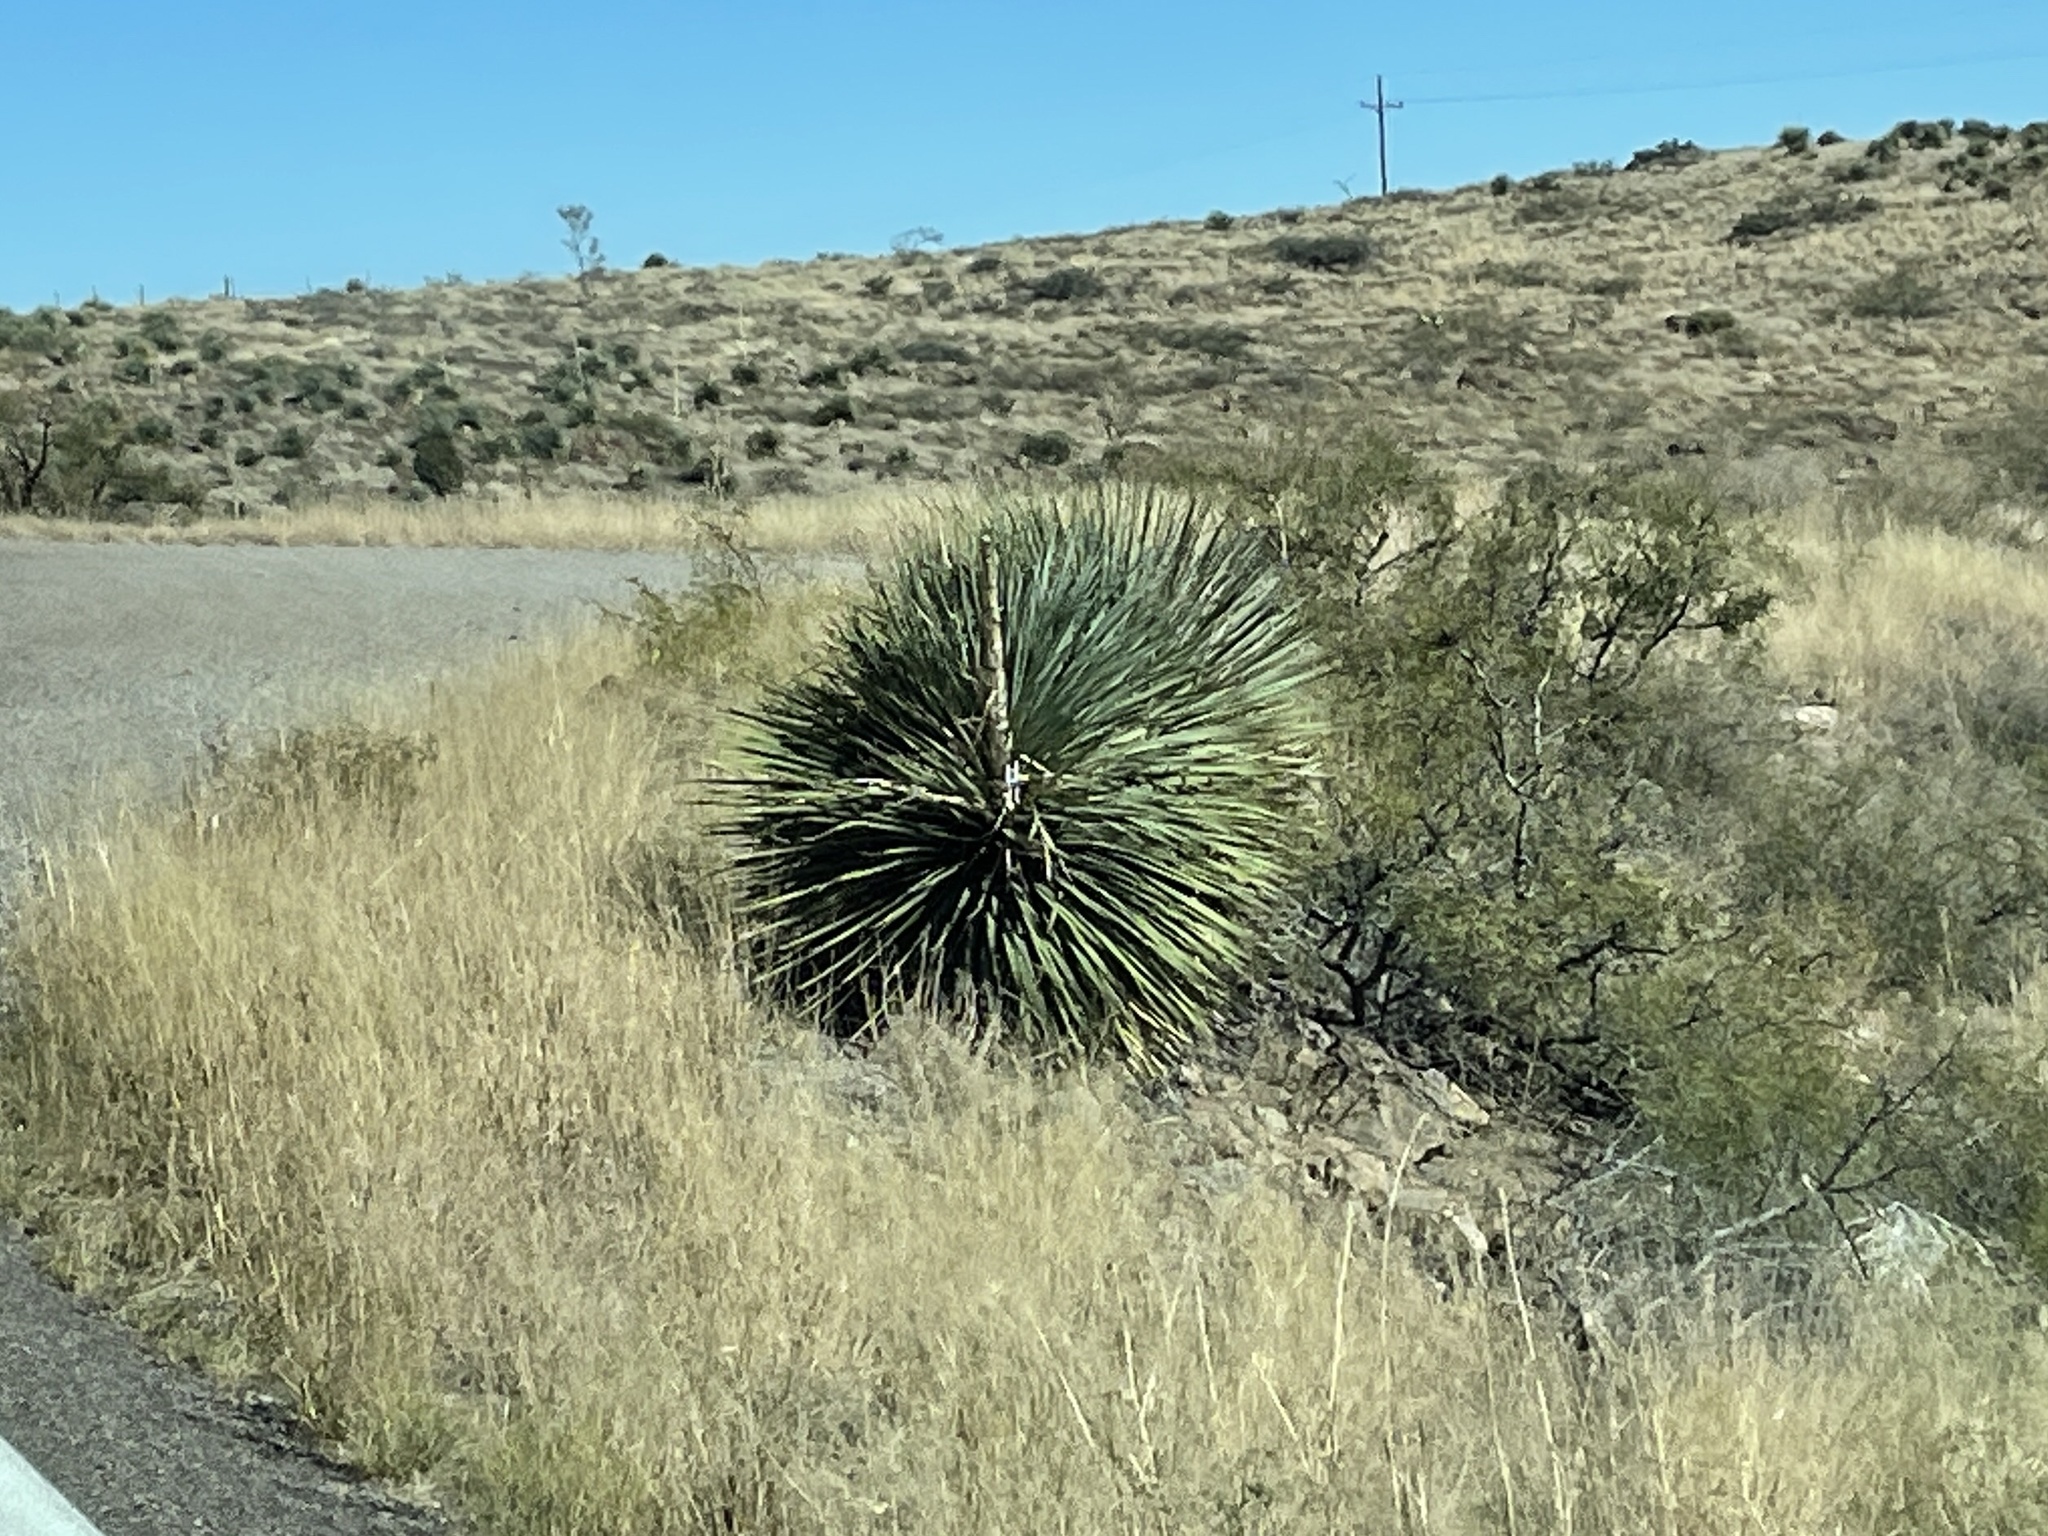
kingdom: Plantae
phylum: Tracheophyta
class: Liliopsida
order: Asparagales
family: Asparagaceae
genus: Dasylirion
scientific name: Dasylirion wheeleri
